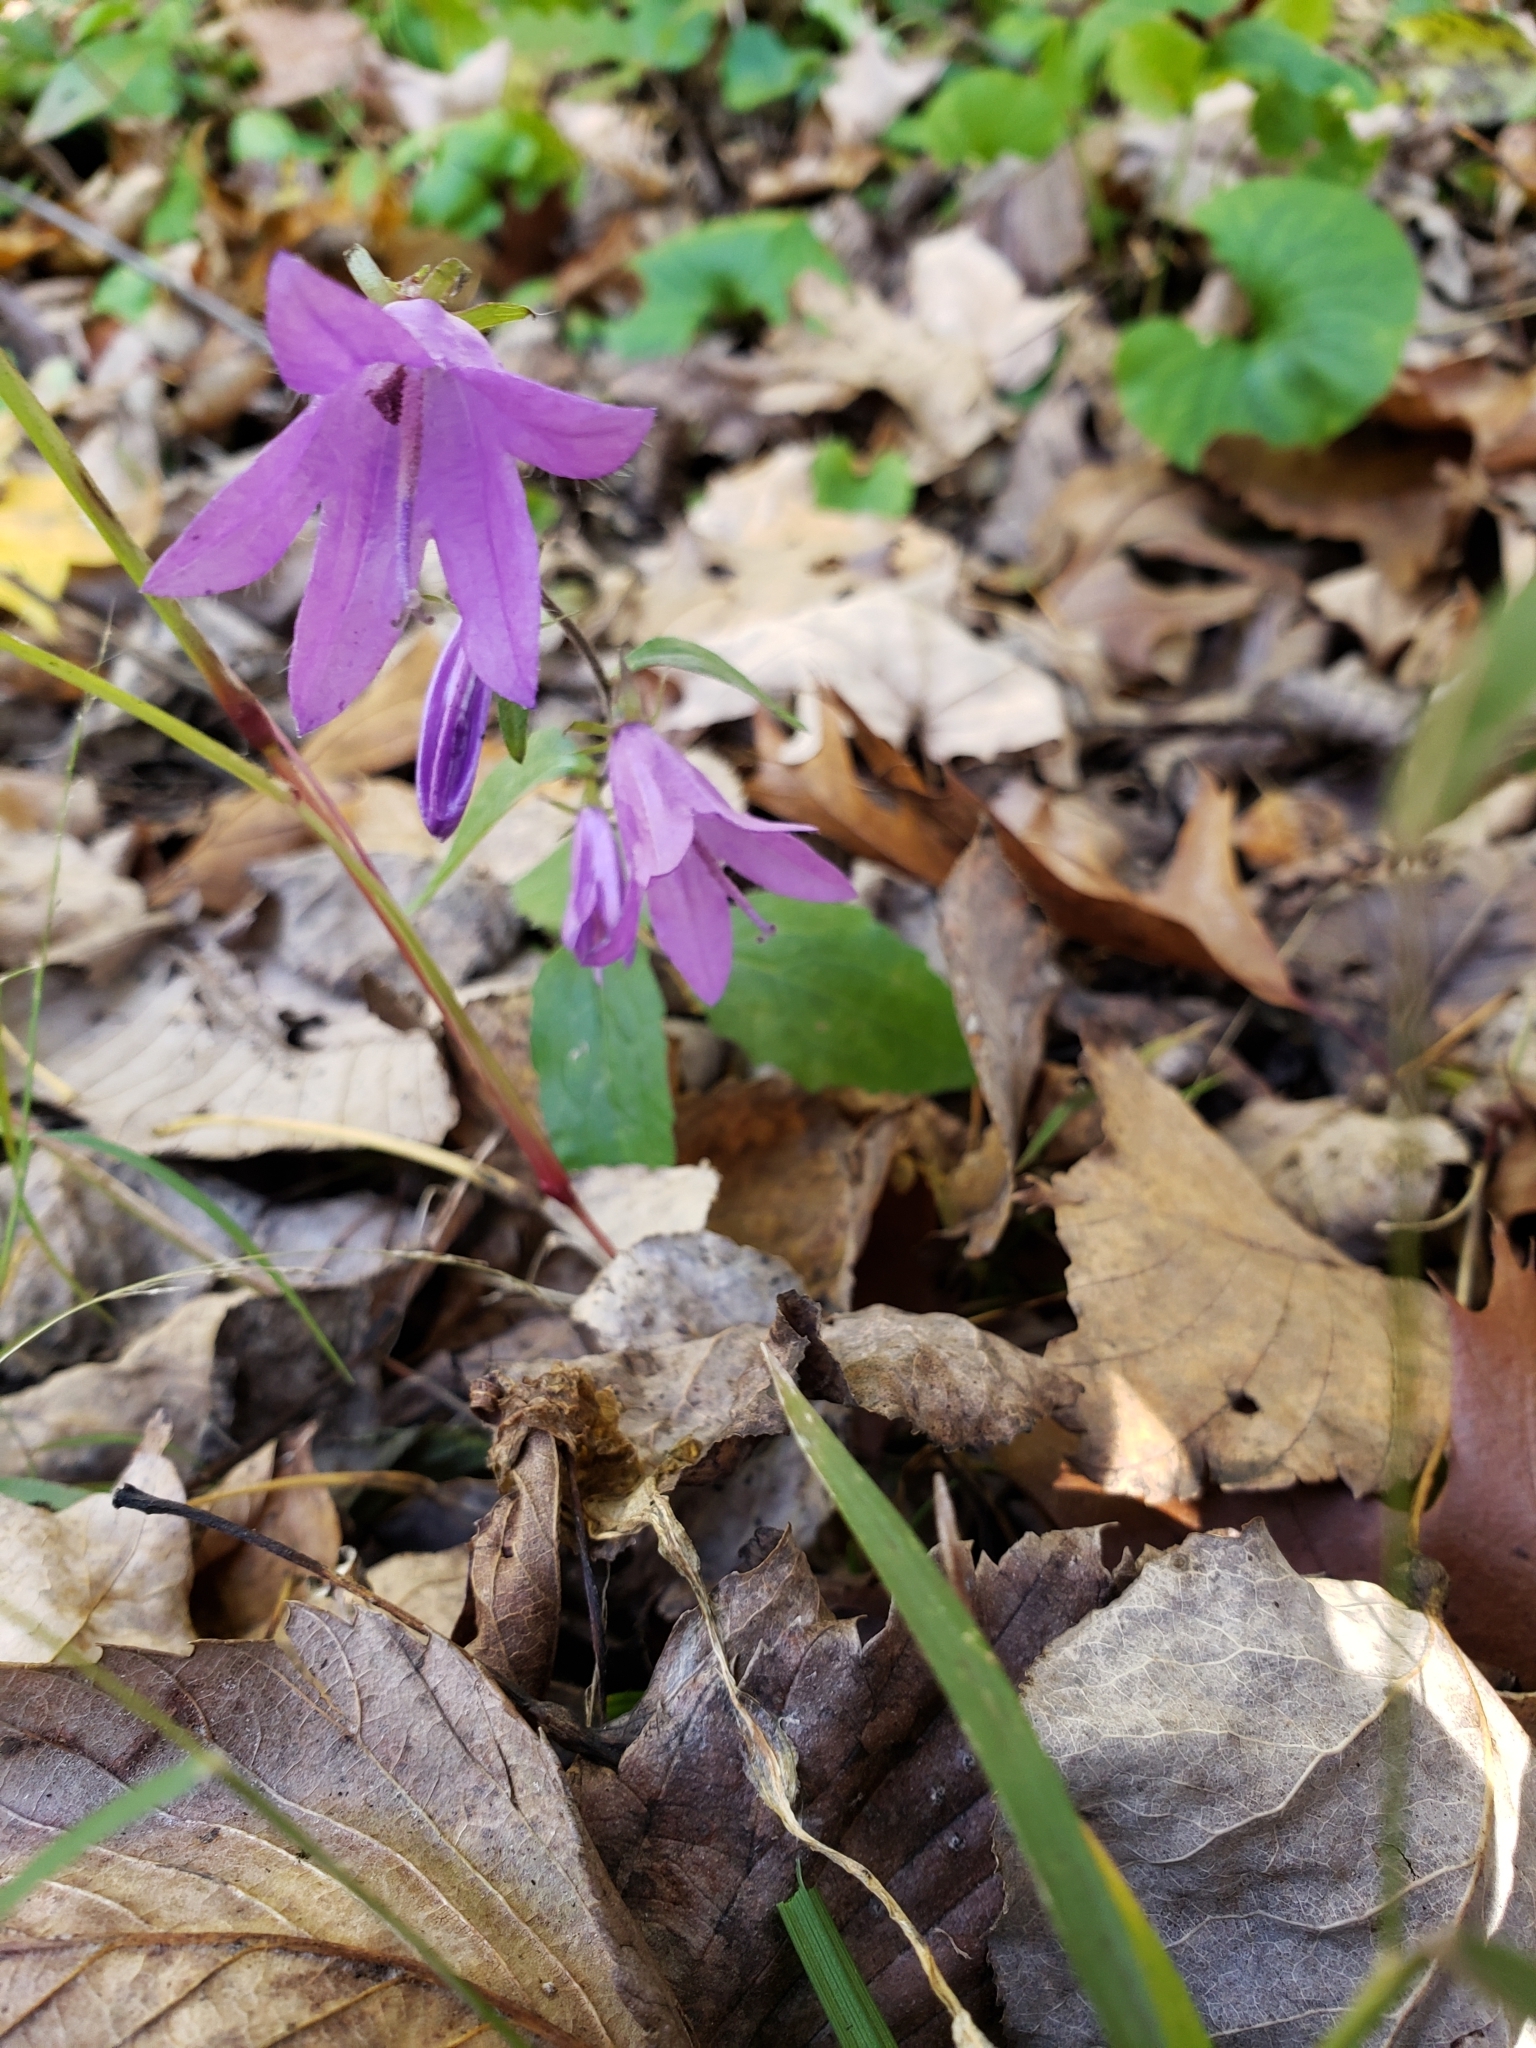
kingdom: Plantae
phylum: Tracheophyta
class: Magnoliopsida
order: Asterales
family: Campanulaceae
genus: Campanula
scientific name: Campanula rapunculoides
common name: Creeping bellflower
